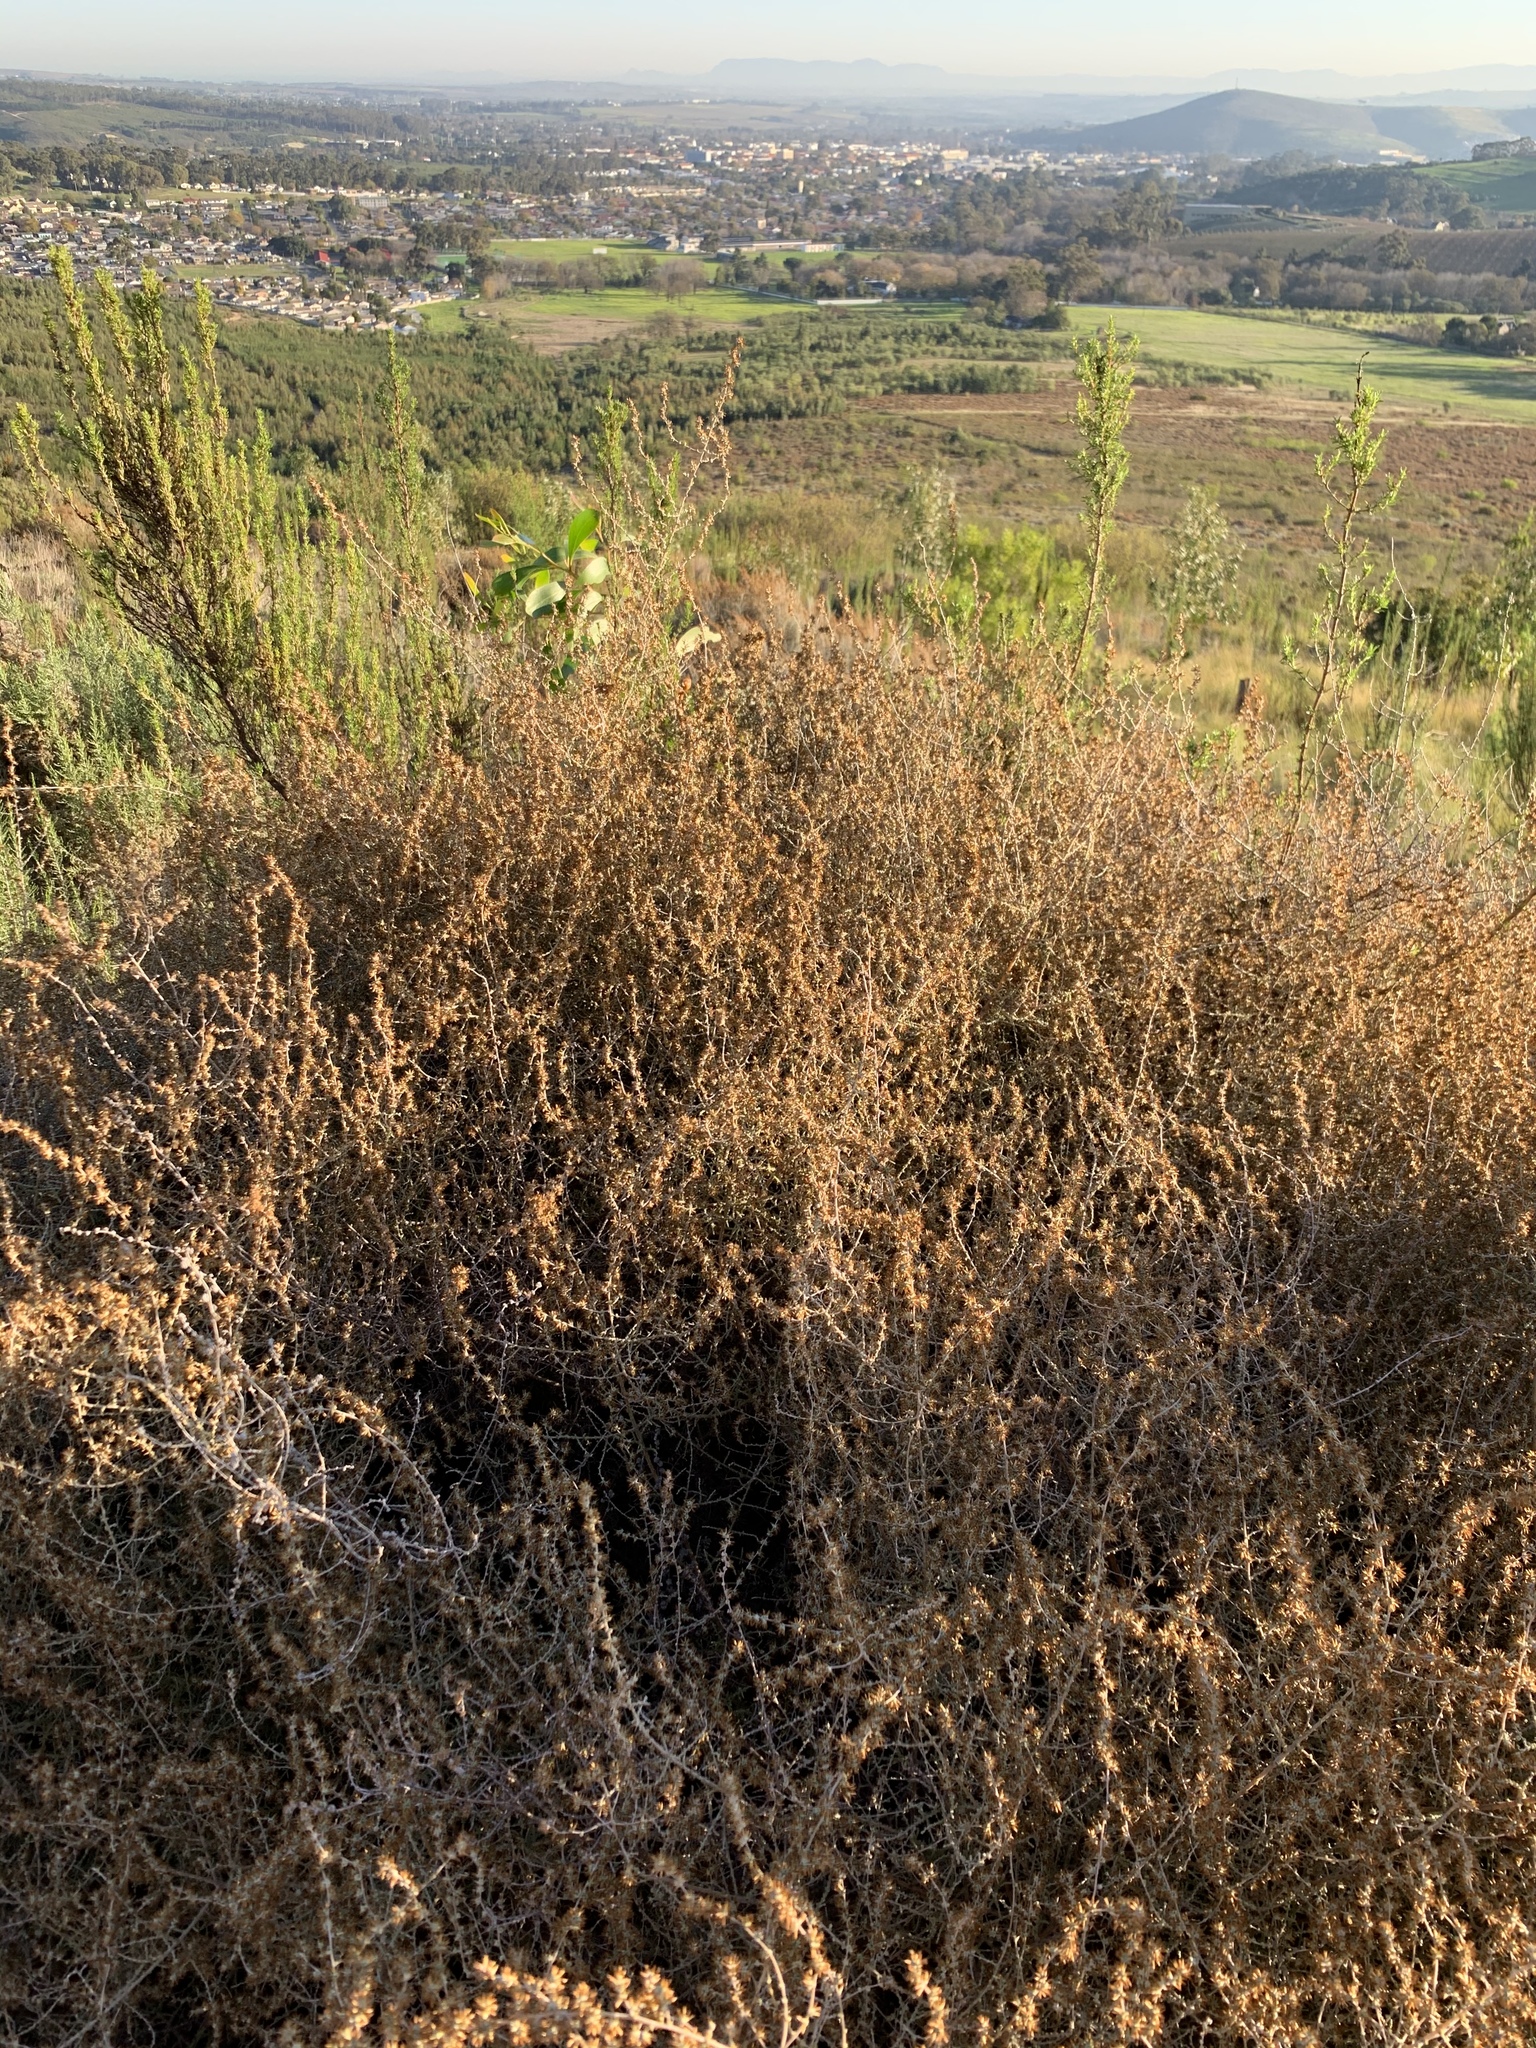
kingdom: Plantae
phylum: Tracheophyta
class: Magnoliopsida
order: Asterales
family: Asteraceae
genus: Seriphium
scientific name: Seriphium plumosum
